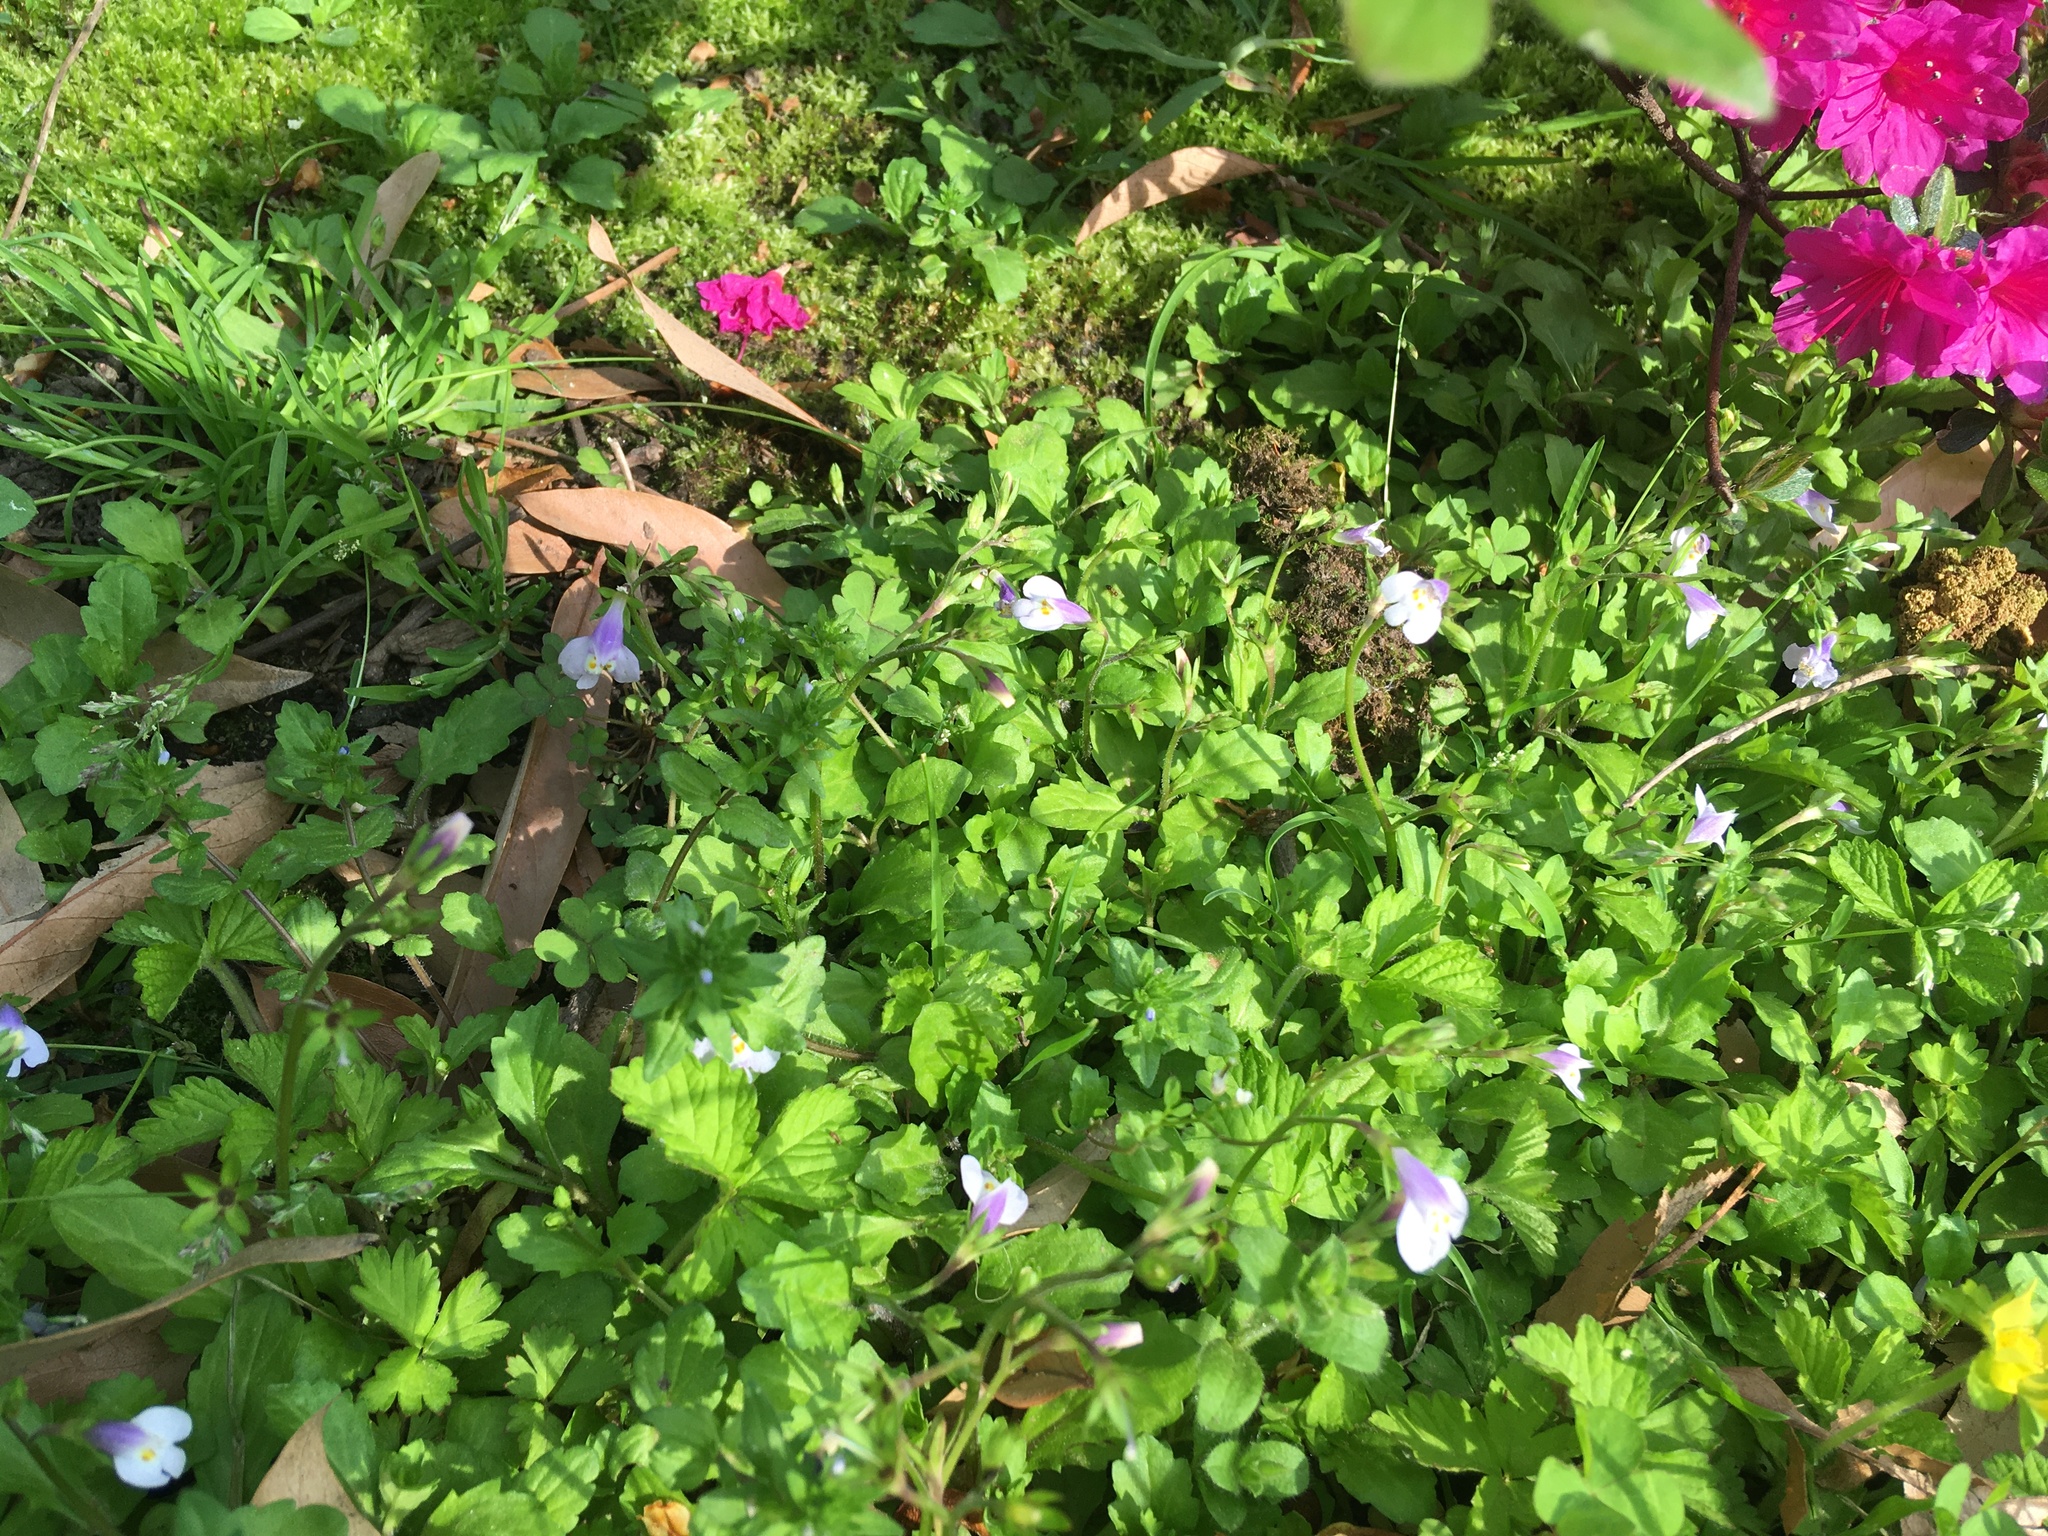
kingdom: Plantae
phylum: Tracheophyta
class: Magnoliopsida
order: Lamiales
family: Mazaceae
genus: Mazus
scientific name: Mazus pumilus
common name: Japanese mazus
